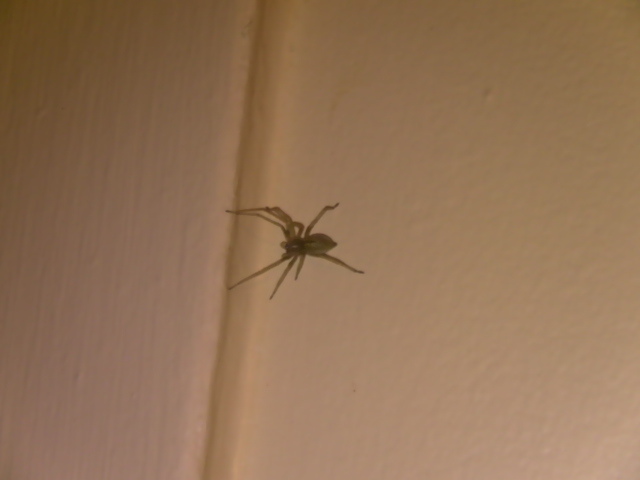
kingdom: Animalia
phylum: Arthropoda
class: Arachnida
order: Araneae
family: Cheiracanthiidae
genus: Cheiracanthium
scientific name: Cheiracanthium mildei
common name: Northern yellow sac spider
